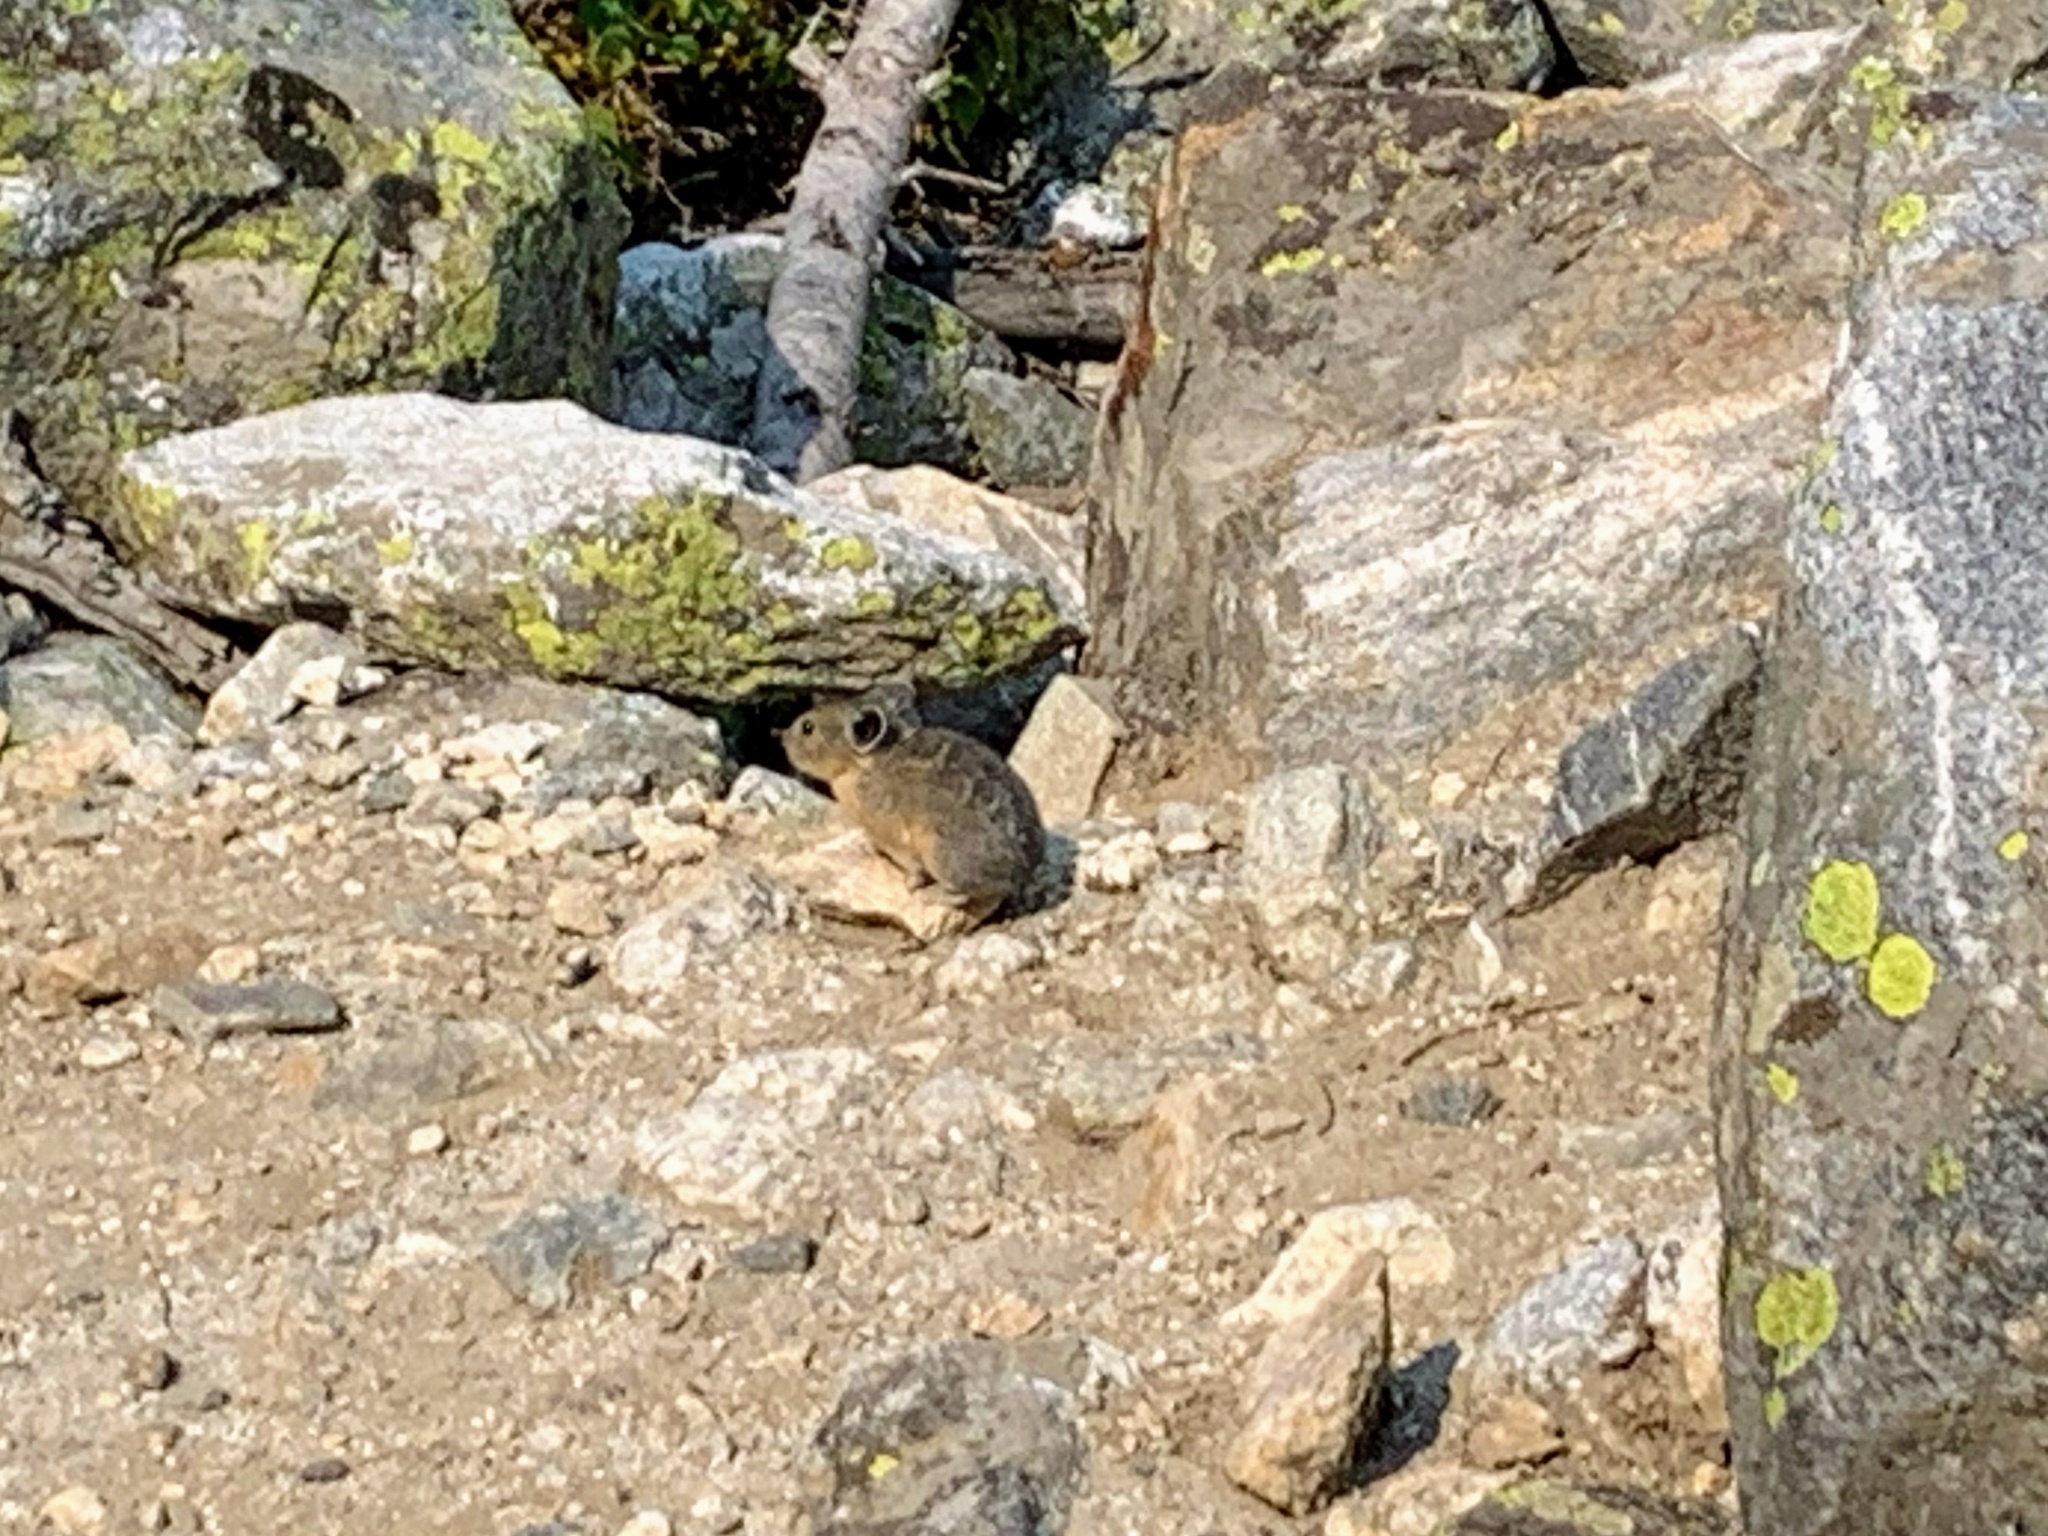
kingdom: Animalia
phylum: Chordata
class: Mammalia
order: Lagomorpha
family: Ochotonidae
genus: Ochotona
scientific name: Ochotona princeps
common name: American pika
